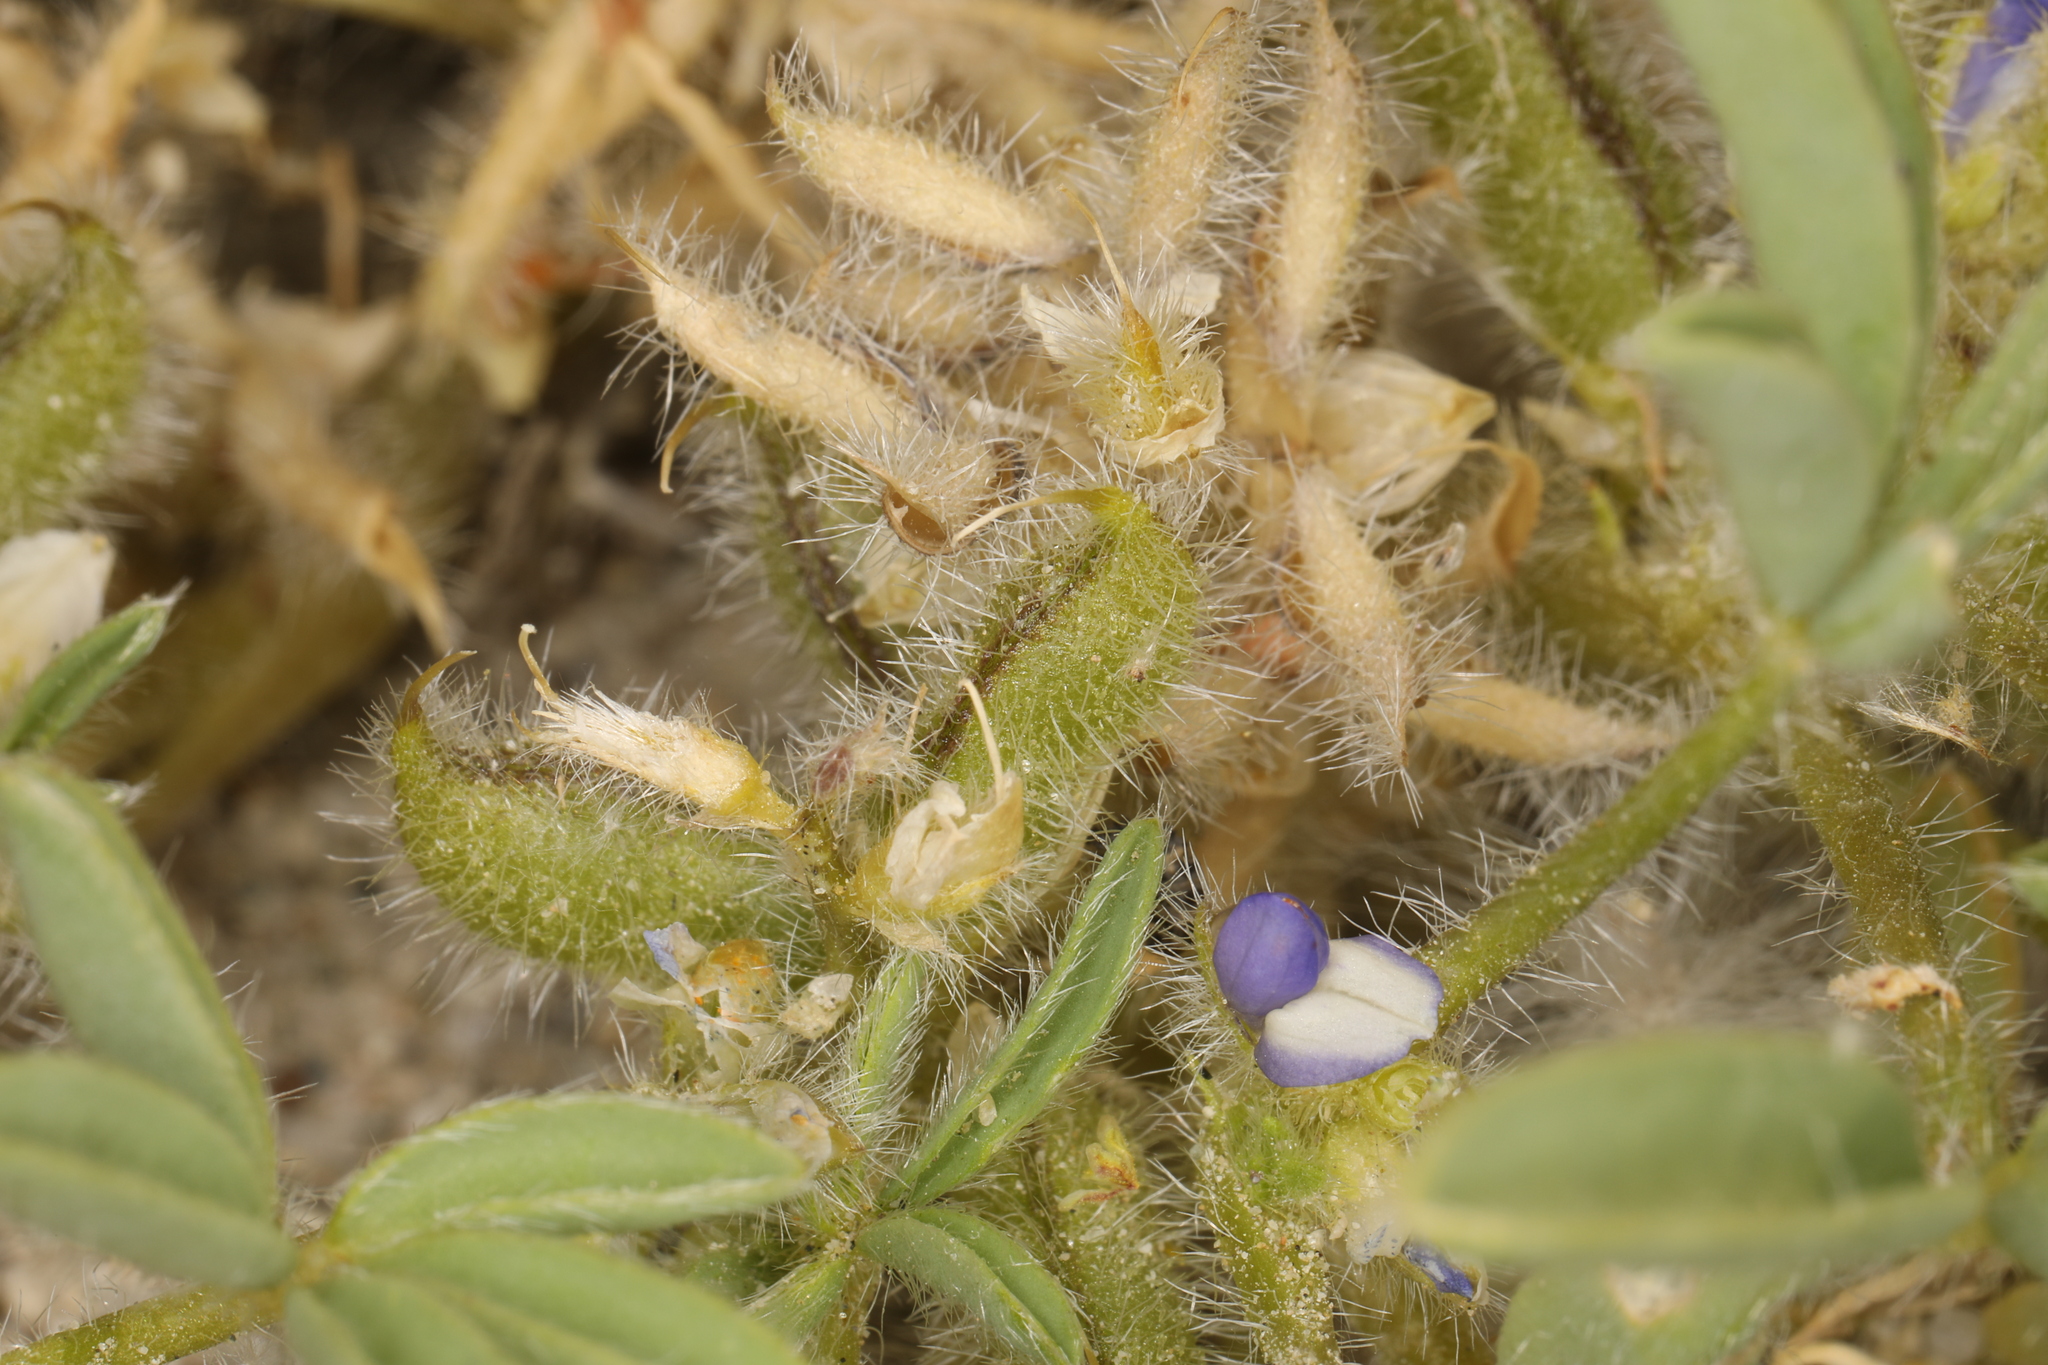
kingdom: Plantae
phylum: Tracheophyta
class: Magnoliopsida
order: Fabales
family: Fabaceae
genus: Lupinus
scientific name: Lupinus pusillus
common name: Low lupine
